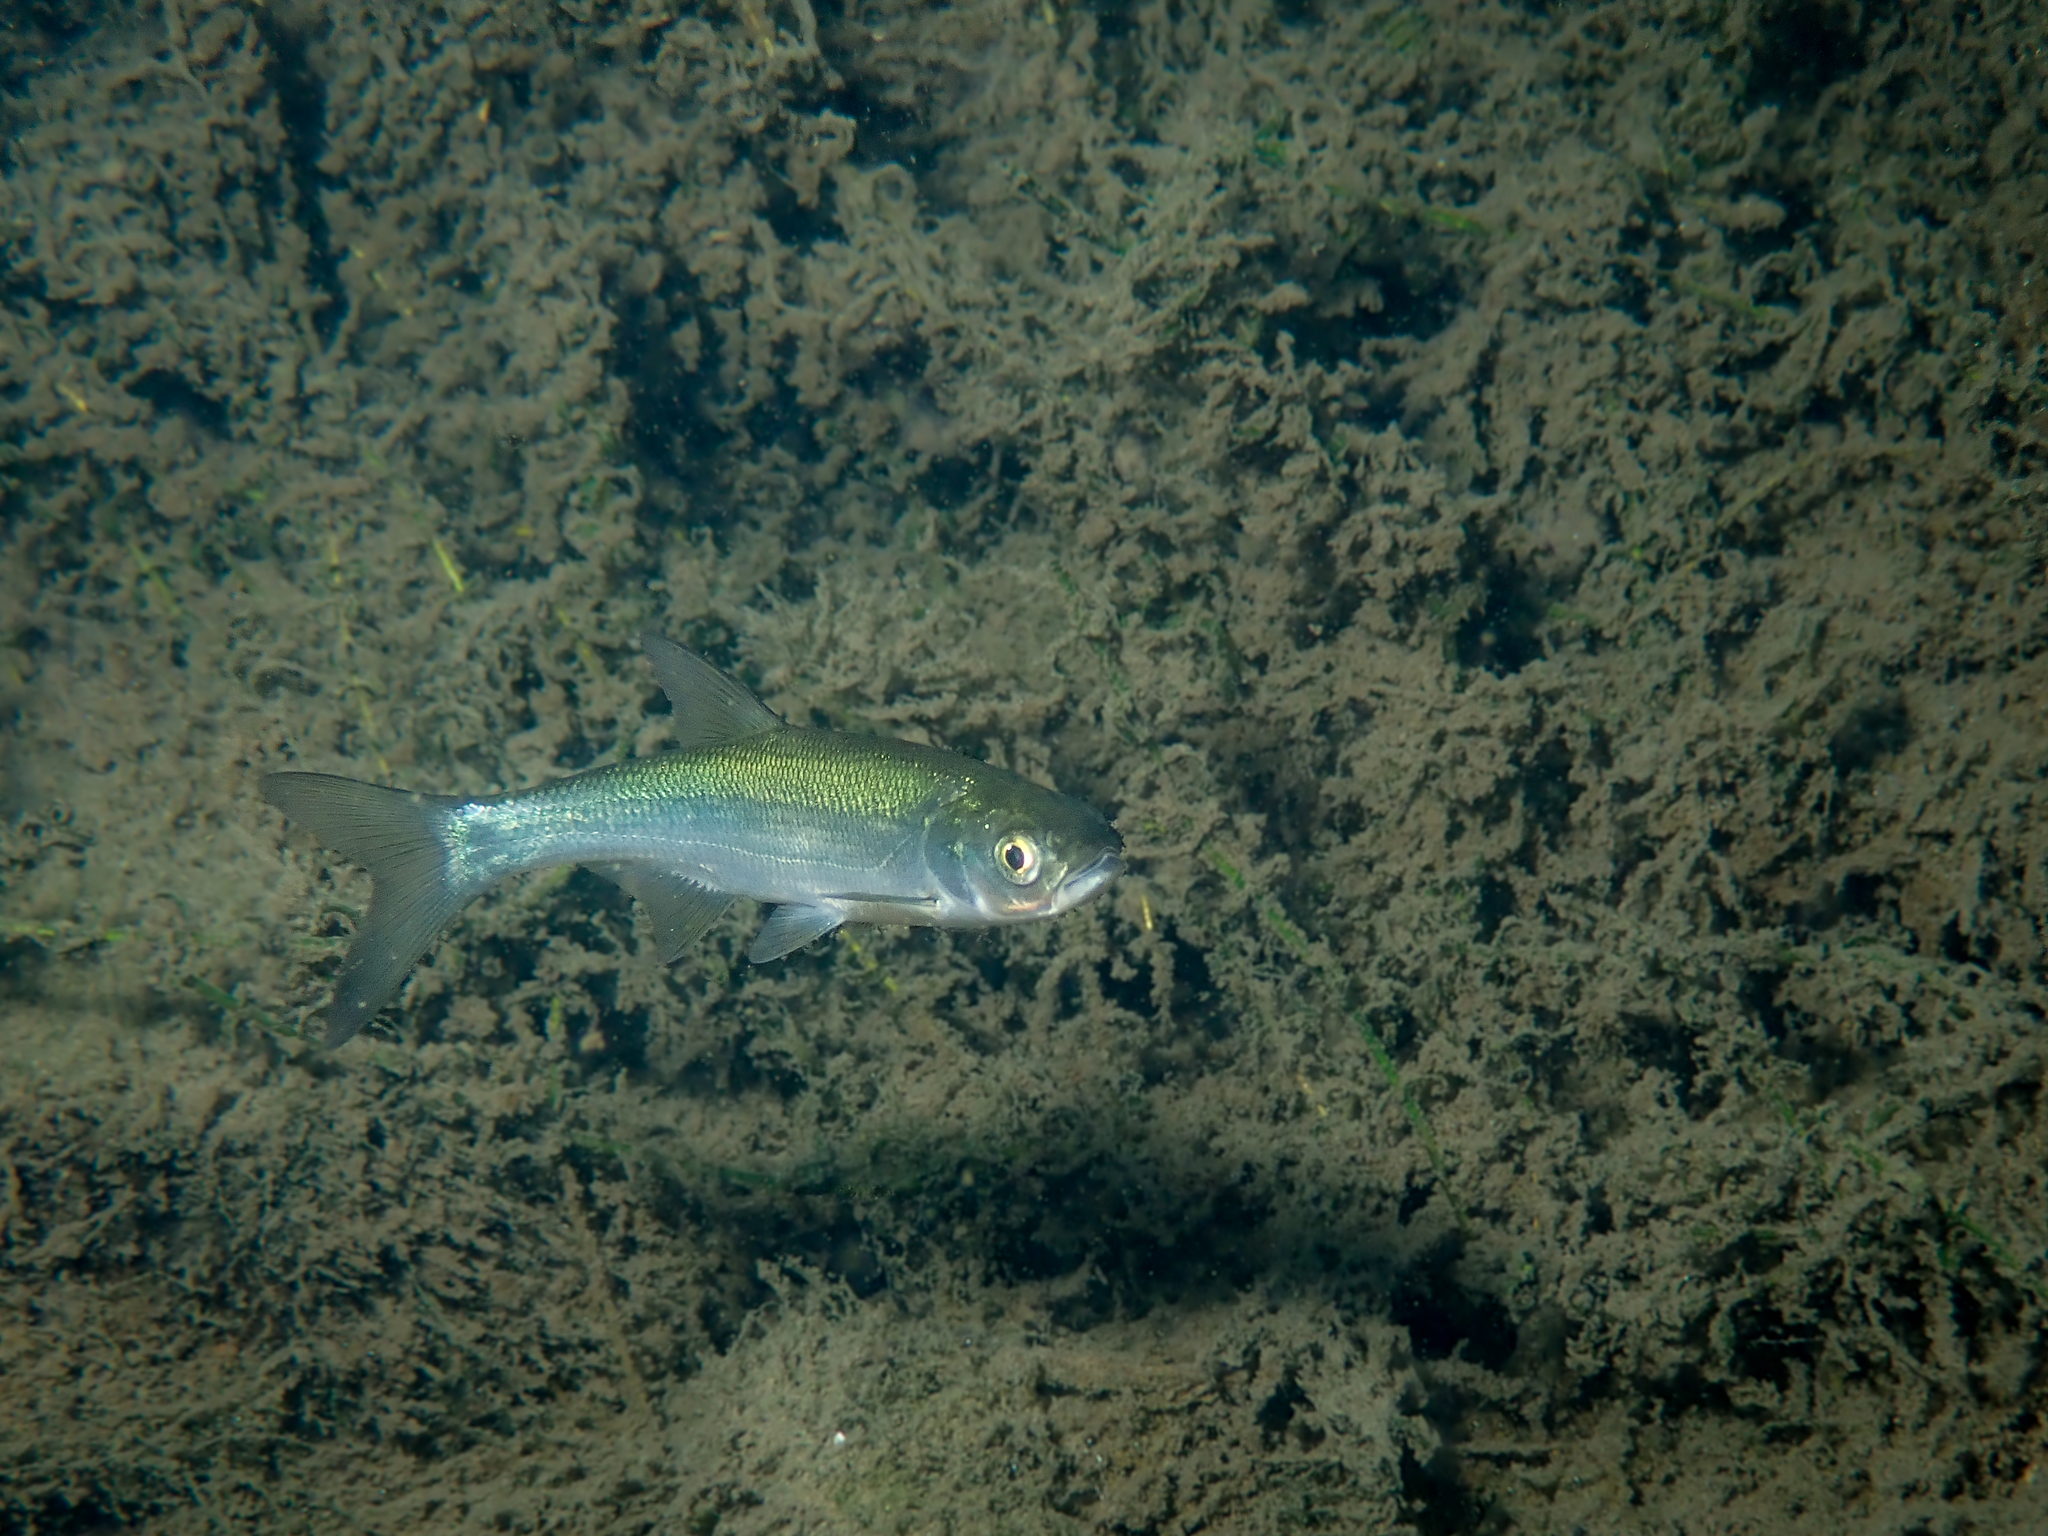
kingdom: Animalia
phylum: Chordata
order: Cypriniformes
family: Cyprinidae
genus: Leuciscus
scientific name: Leuciscus aspius
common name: Asp
